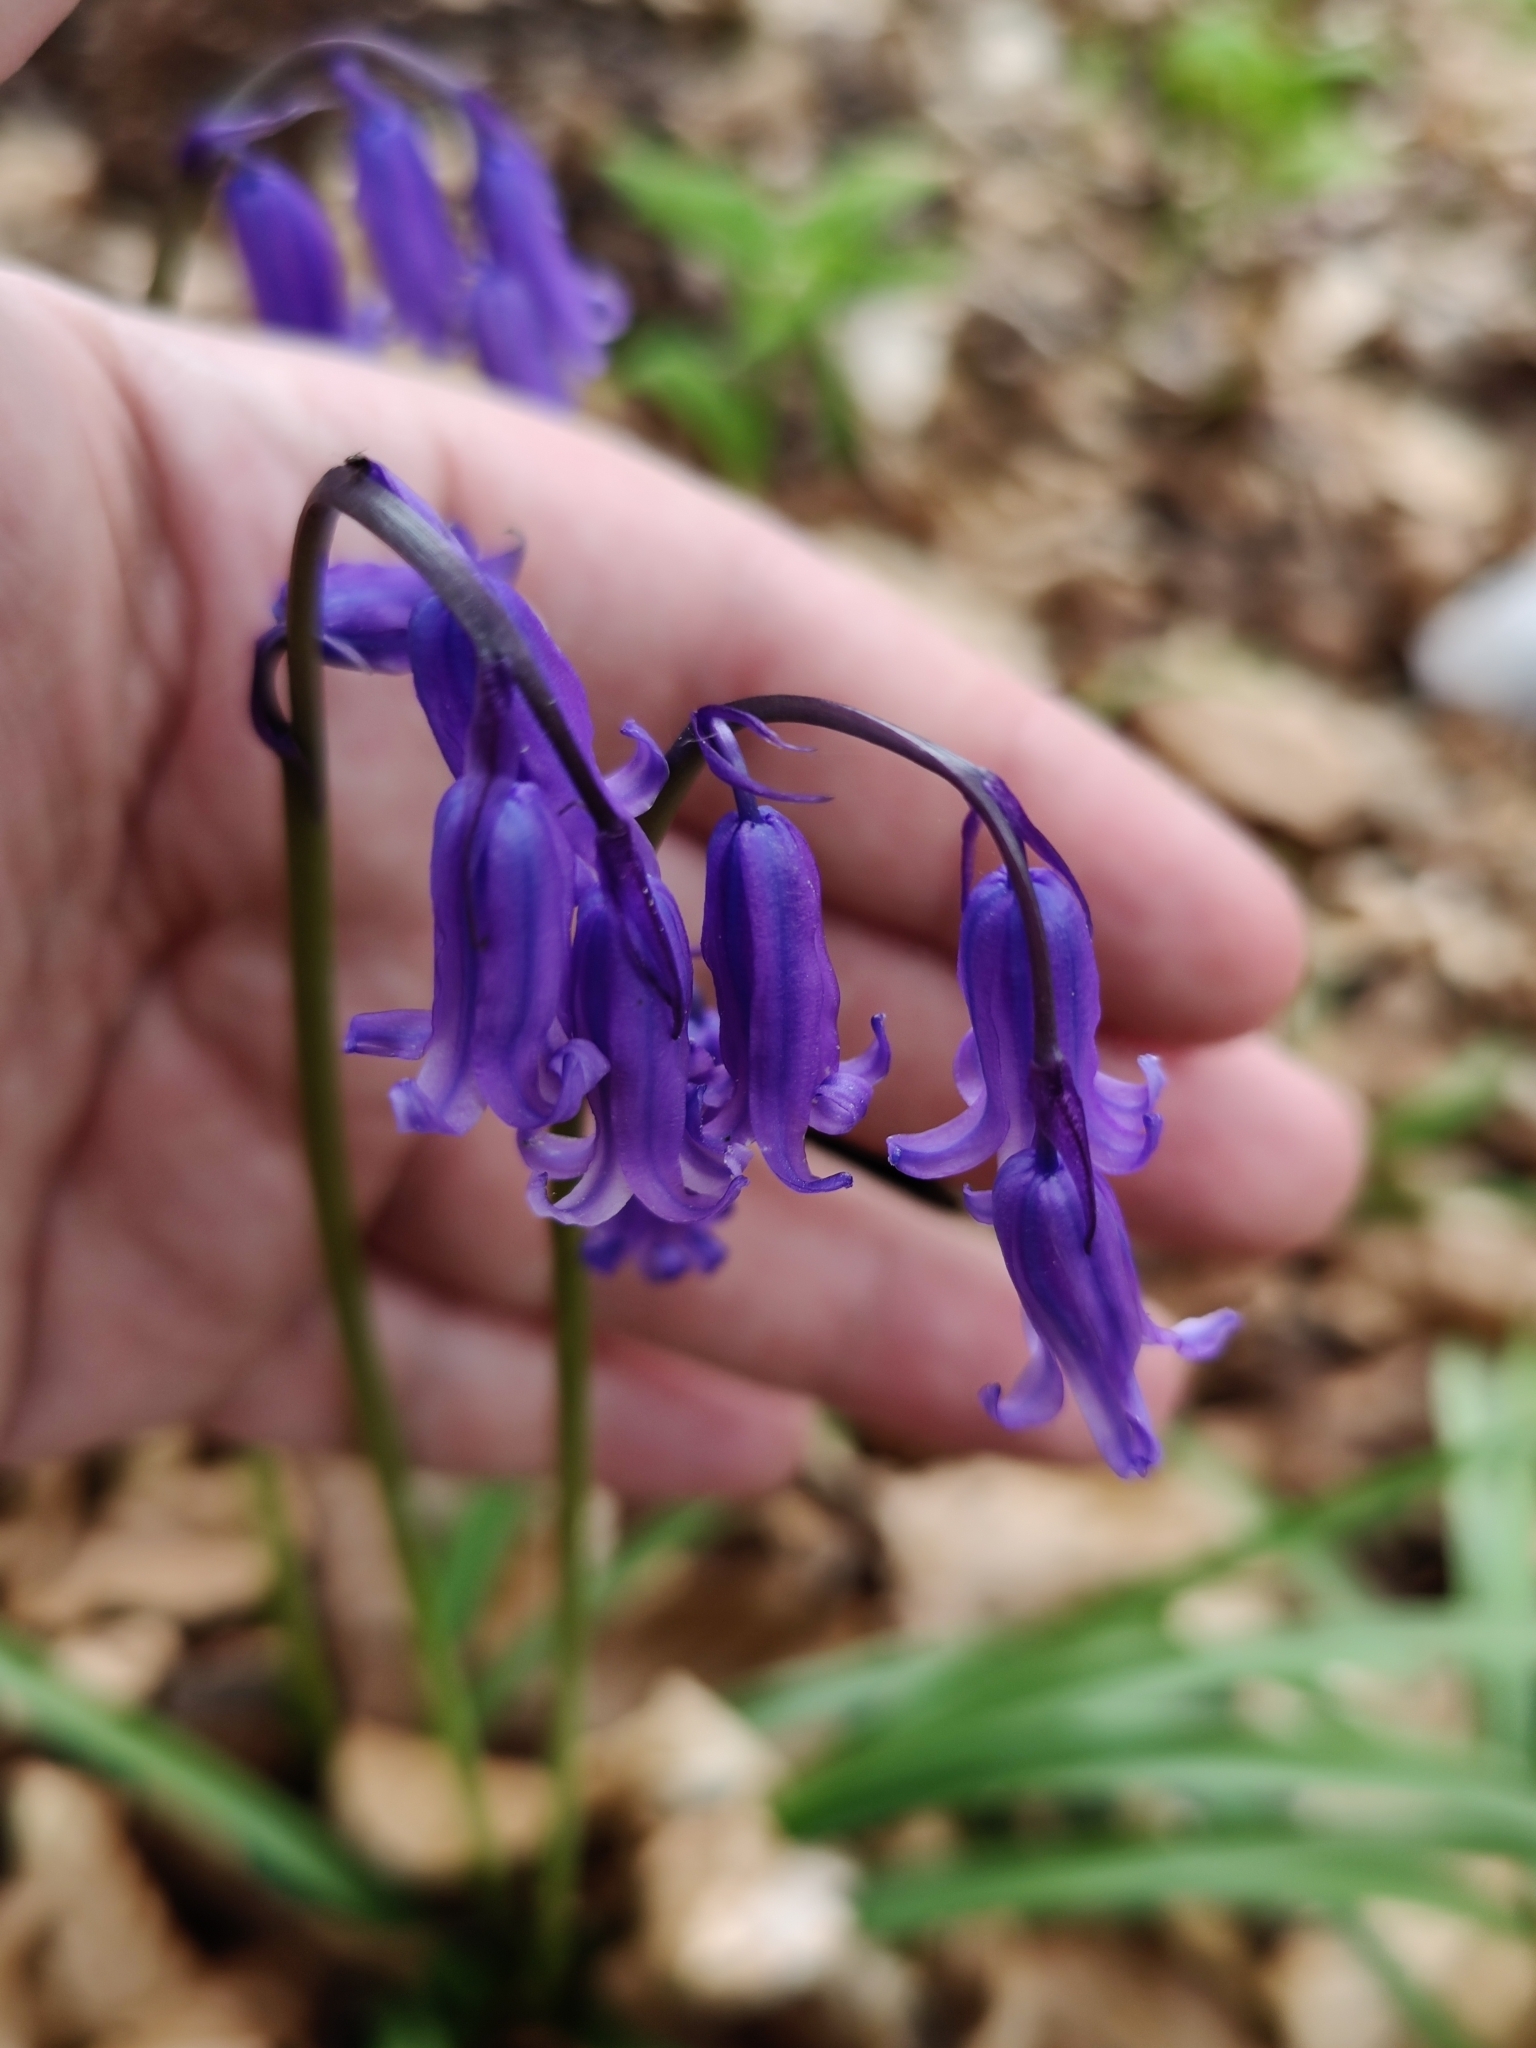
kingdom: Plantae
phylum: Tracheophyta
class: Liliopsida
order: Asparagales
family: Asparagaceae
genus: Hyacinthoides
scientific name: Hyacinthoides non-scripta
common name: Bluebell
